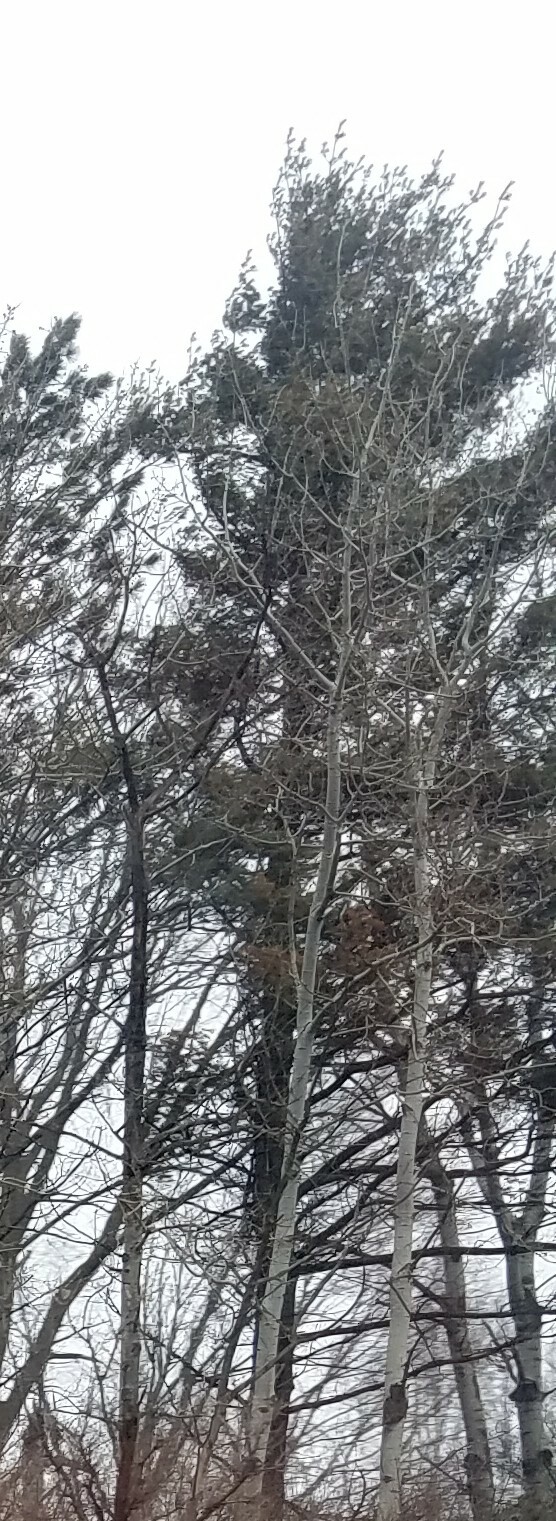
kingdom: Plantae
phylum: Tracheophyta
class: Pinopsida
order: Pinales
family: Pinaceae
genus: Pinus
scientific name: Pinus strobus
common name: Weymouth pine
